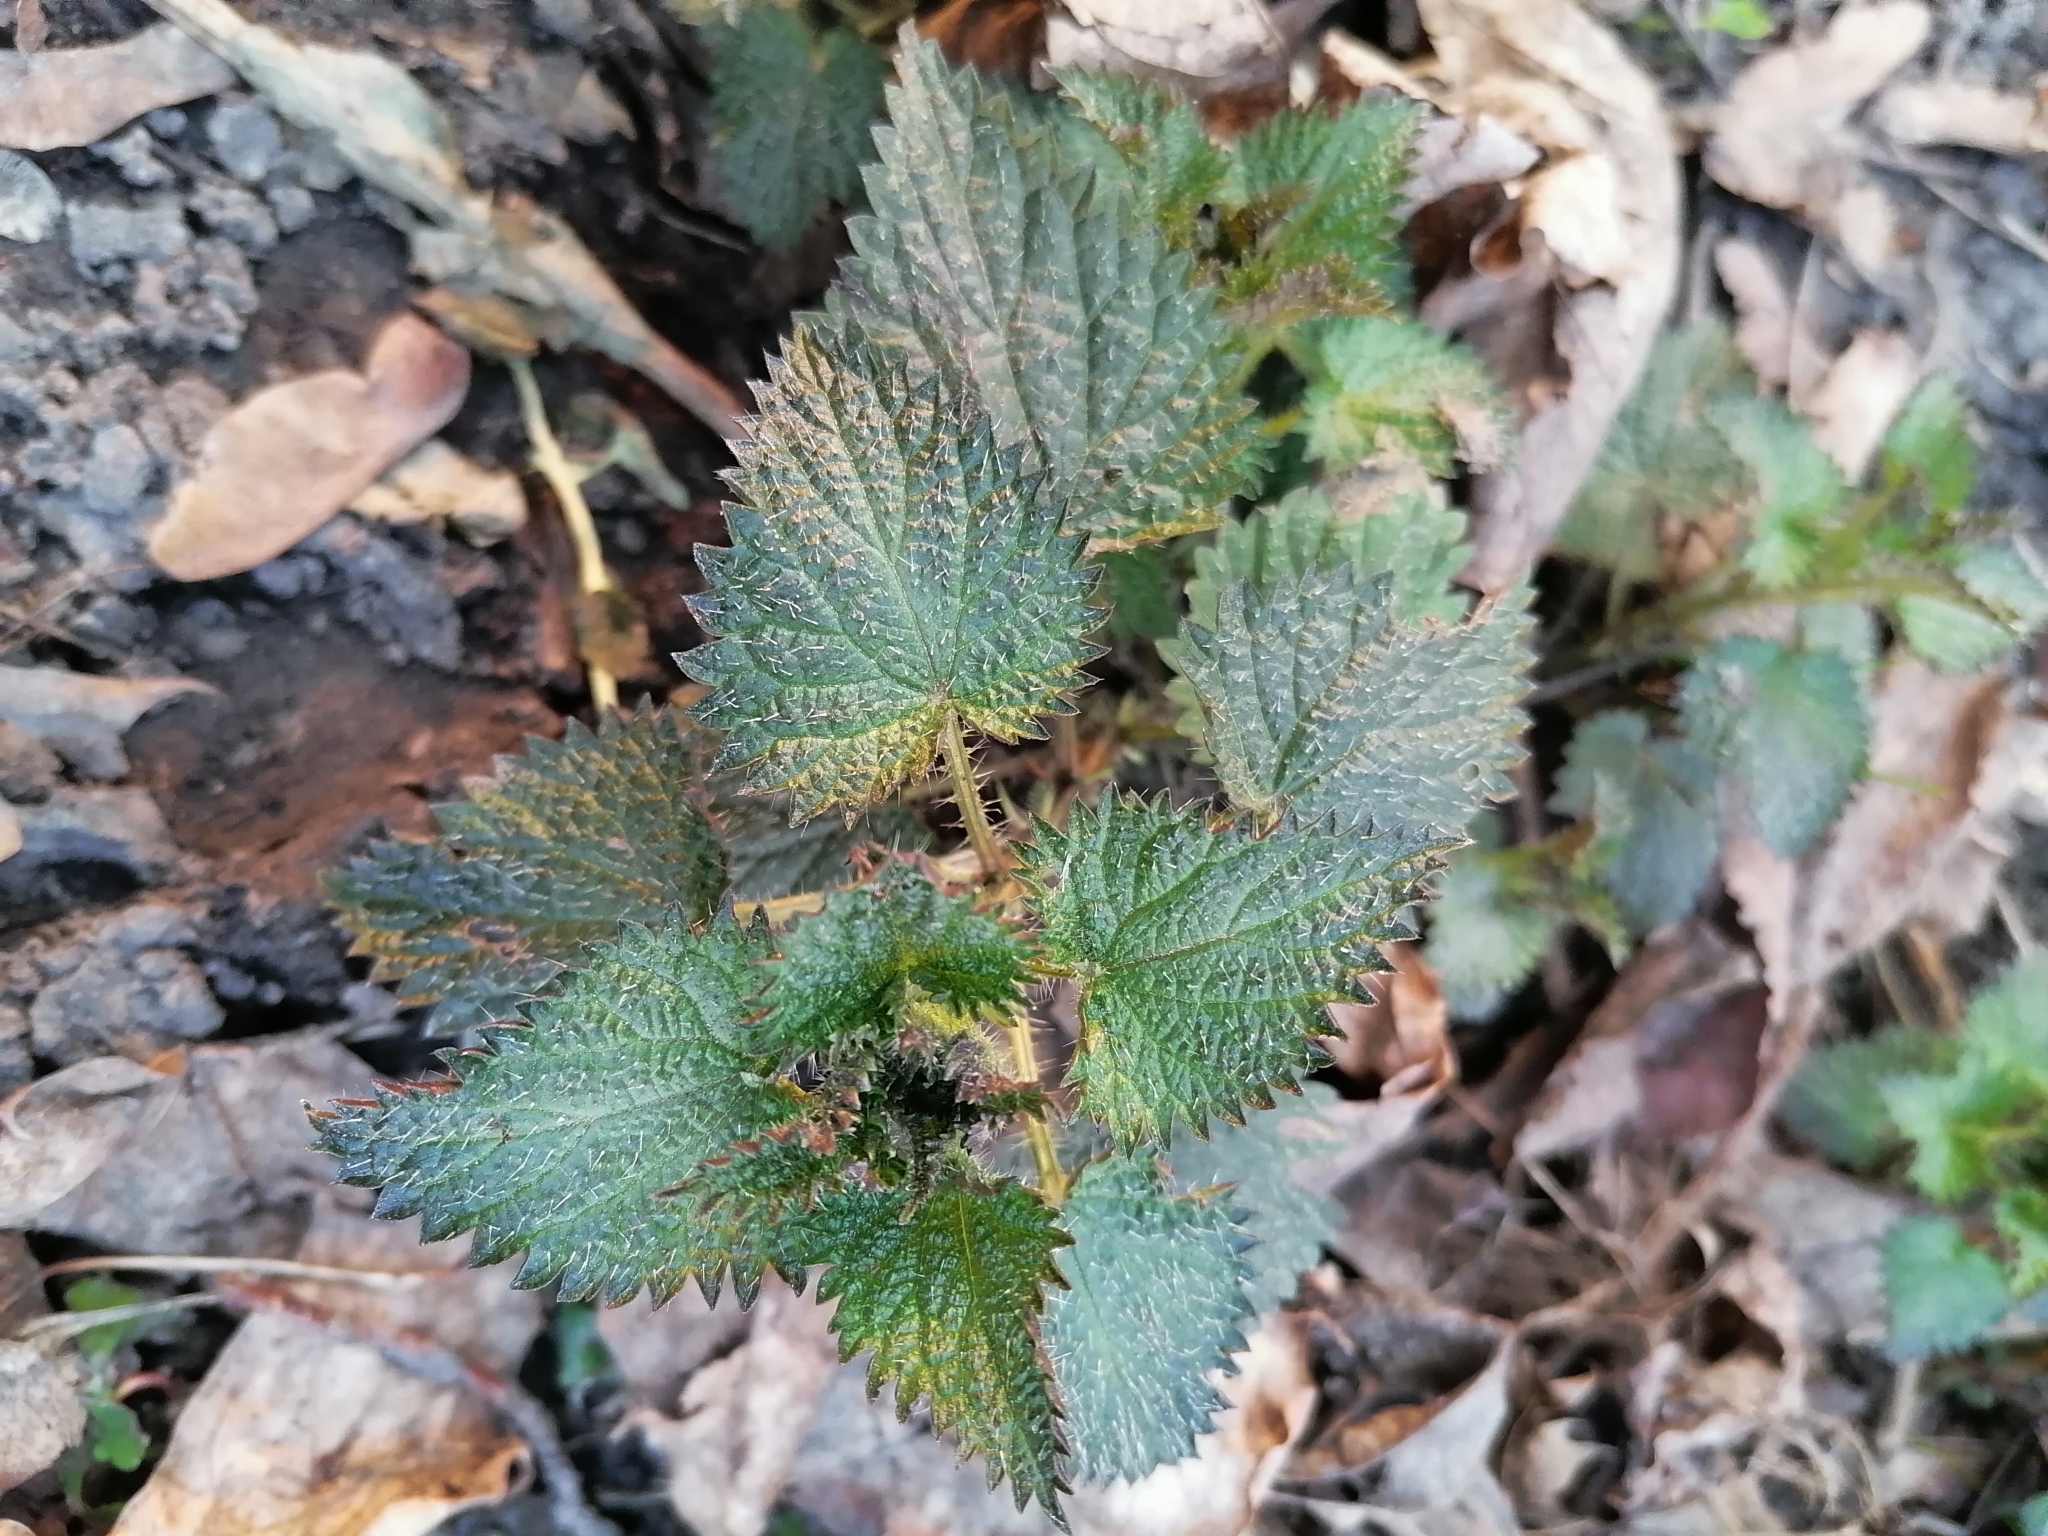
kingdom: Plantae
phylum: Tracheophyta
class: Magnoliopsida
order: Rosales
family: Urticaceae
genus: Urtica
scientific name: Urtica dioica
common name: Common nettle
